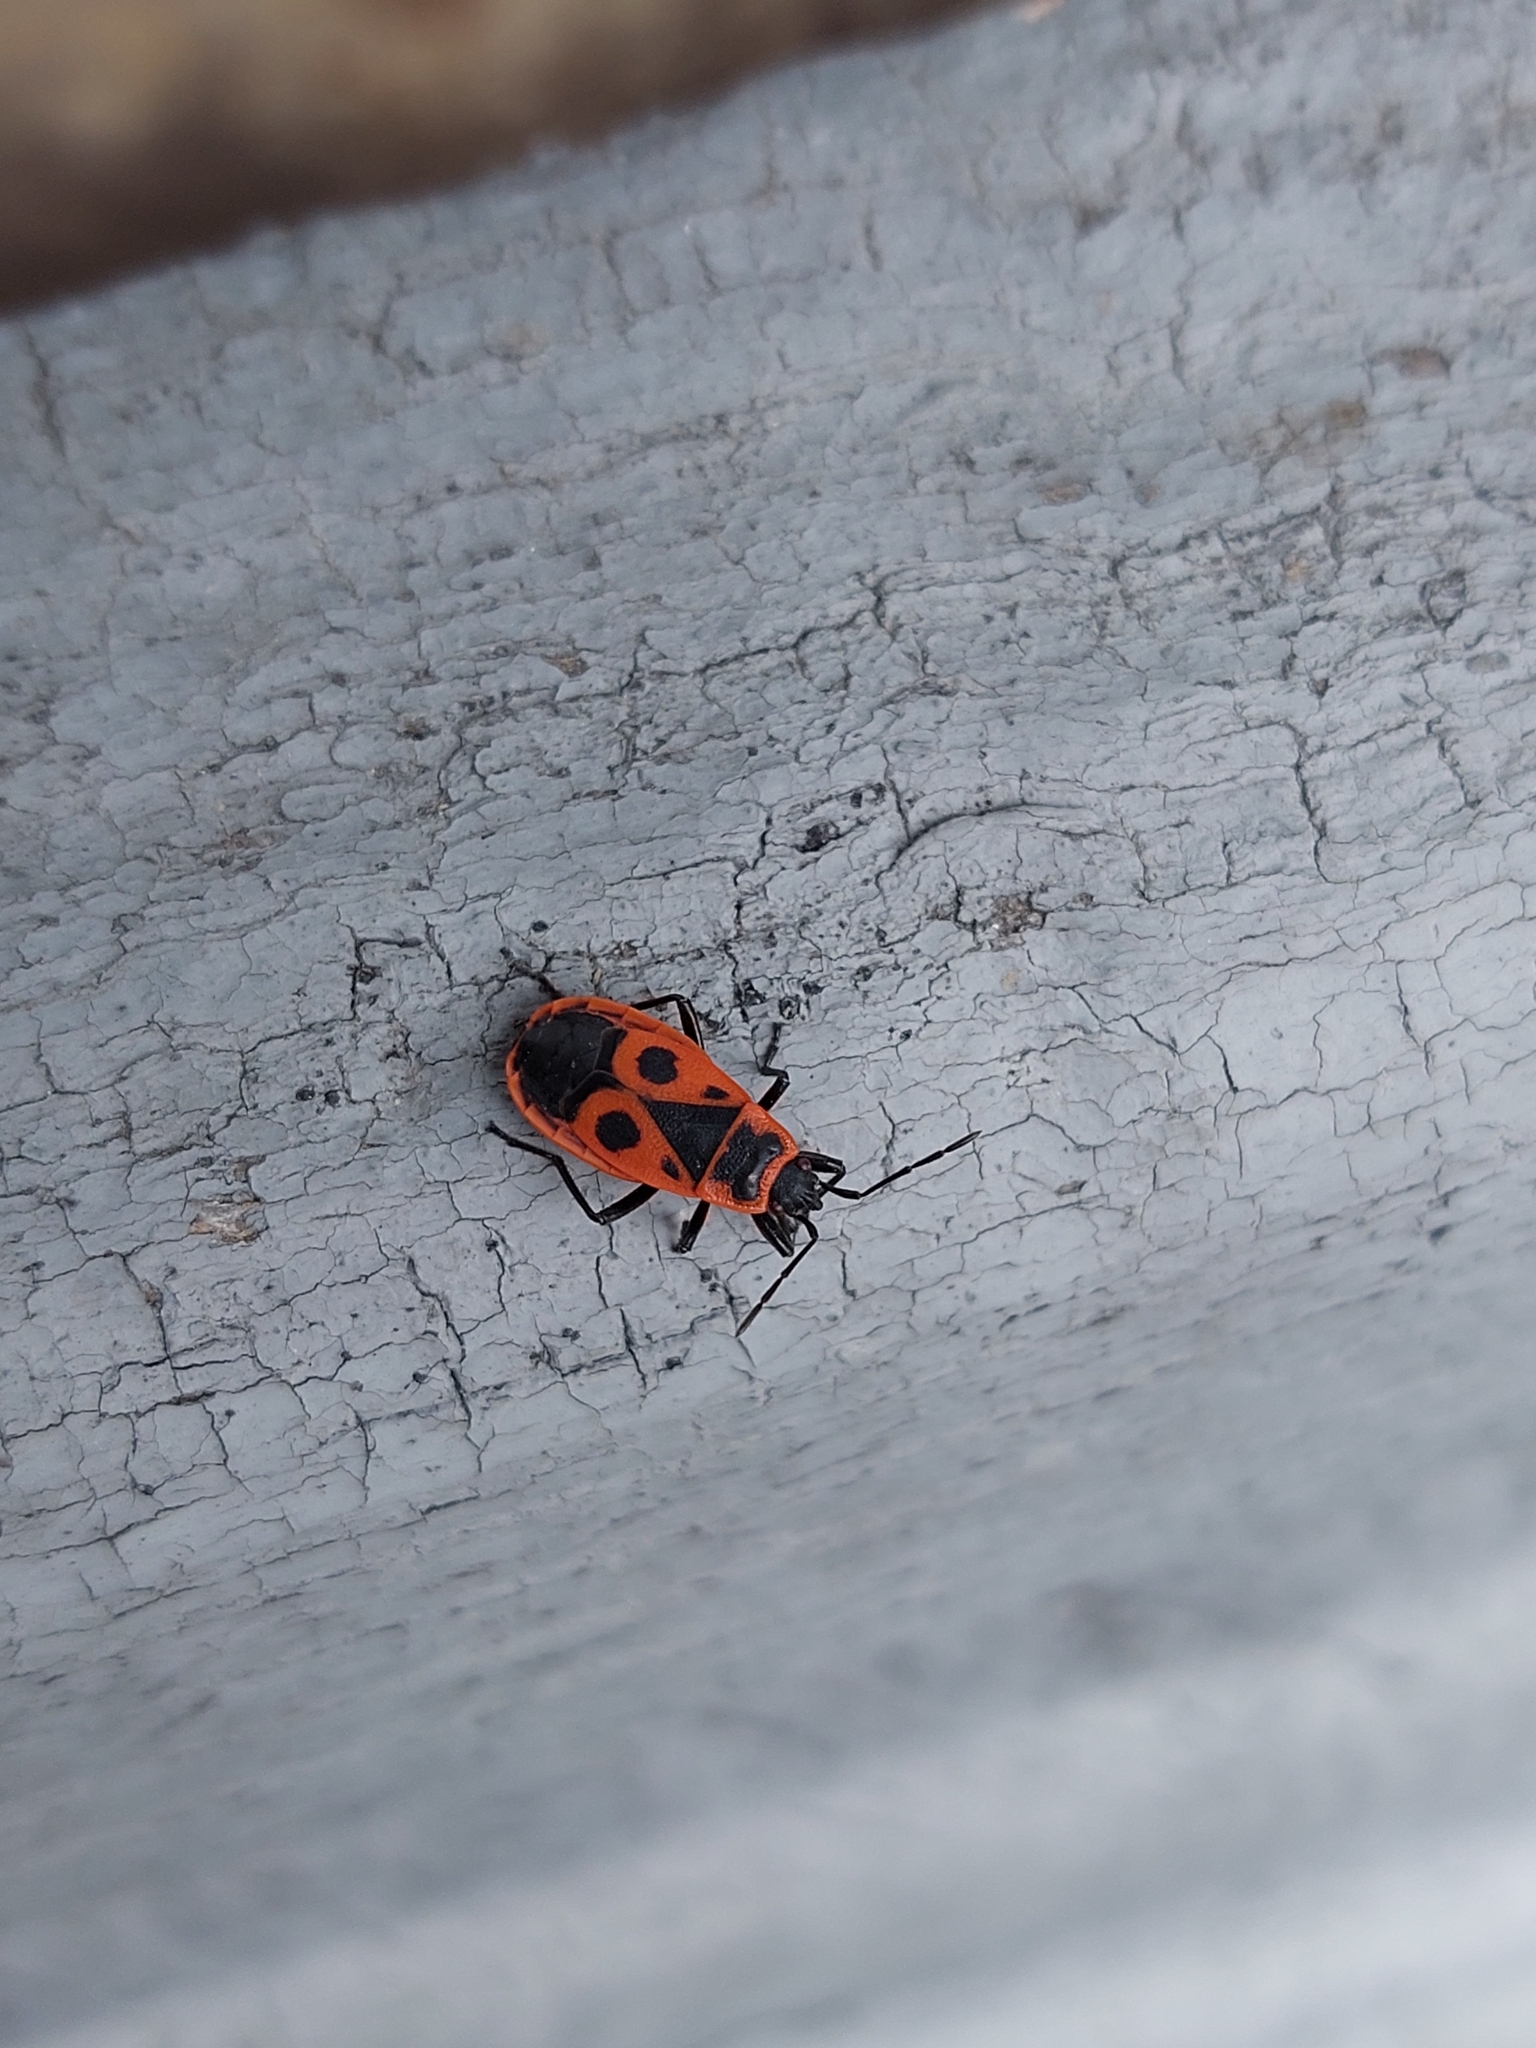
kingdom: Animalia
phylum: Arthropoda
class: Insecta
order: Hemiptera
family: Pyrrhocoridae
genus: Pyrrhocoris
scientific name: Pyrrhocoris apterus
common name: Firebug
